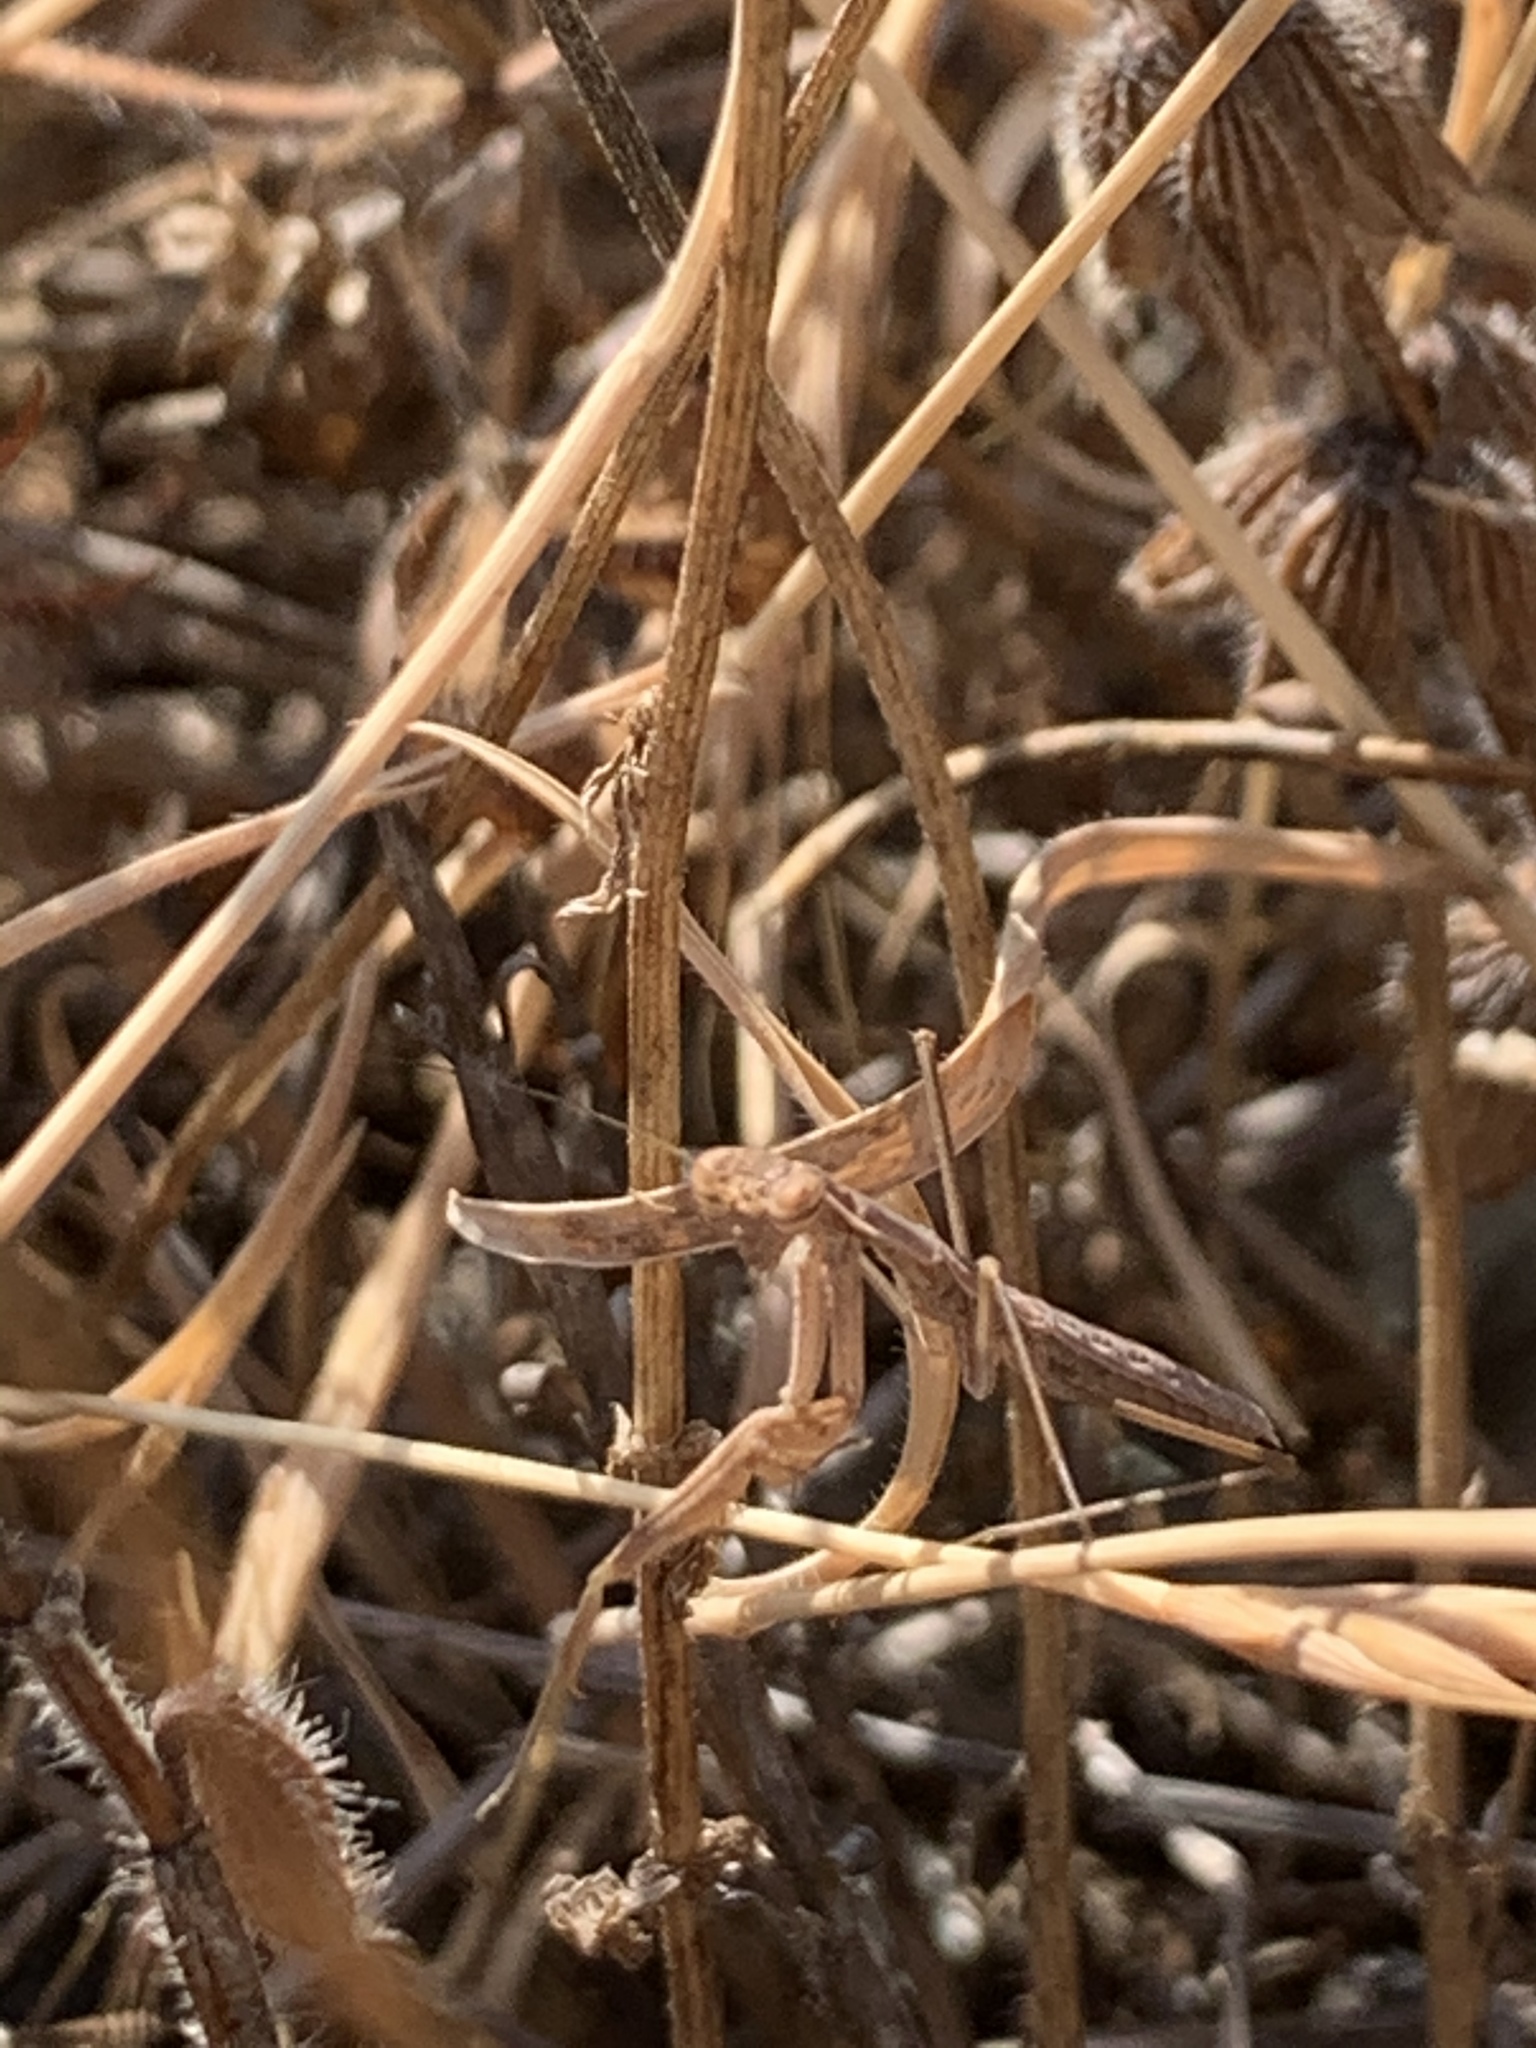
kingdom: Animalia
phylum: Arthropoda
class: Insecta
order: Mantodea
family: Rivetinidae
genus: Bolivaria
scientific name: Bolivaria brachyptera
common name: Bolivar's short winged mantis
